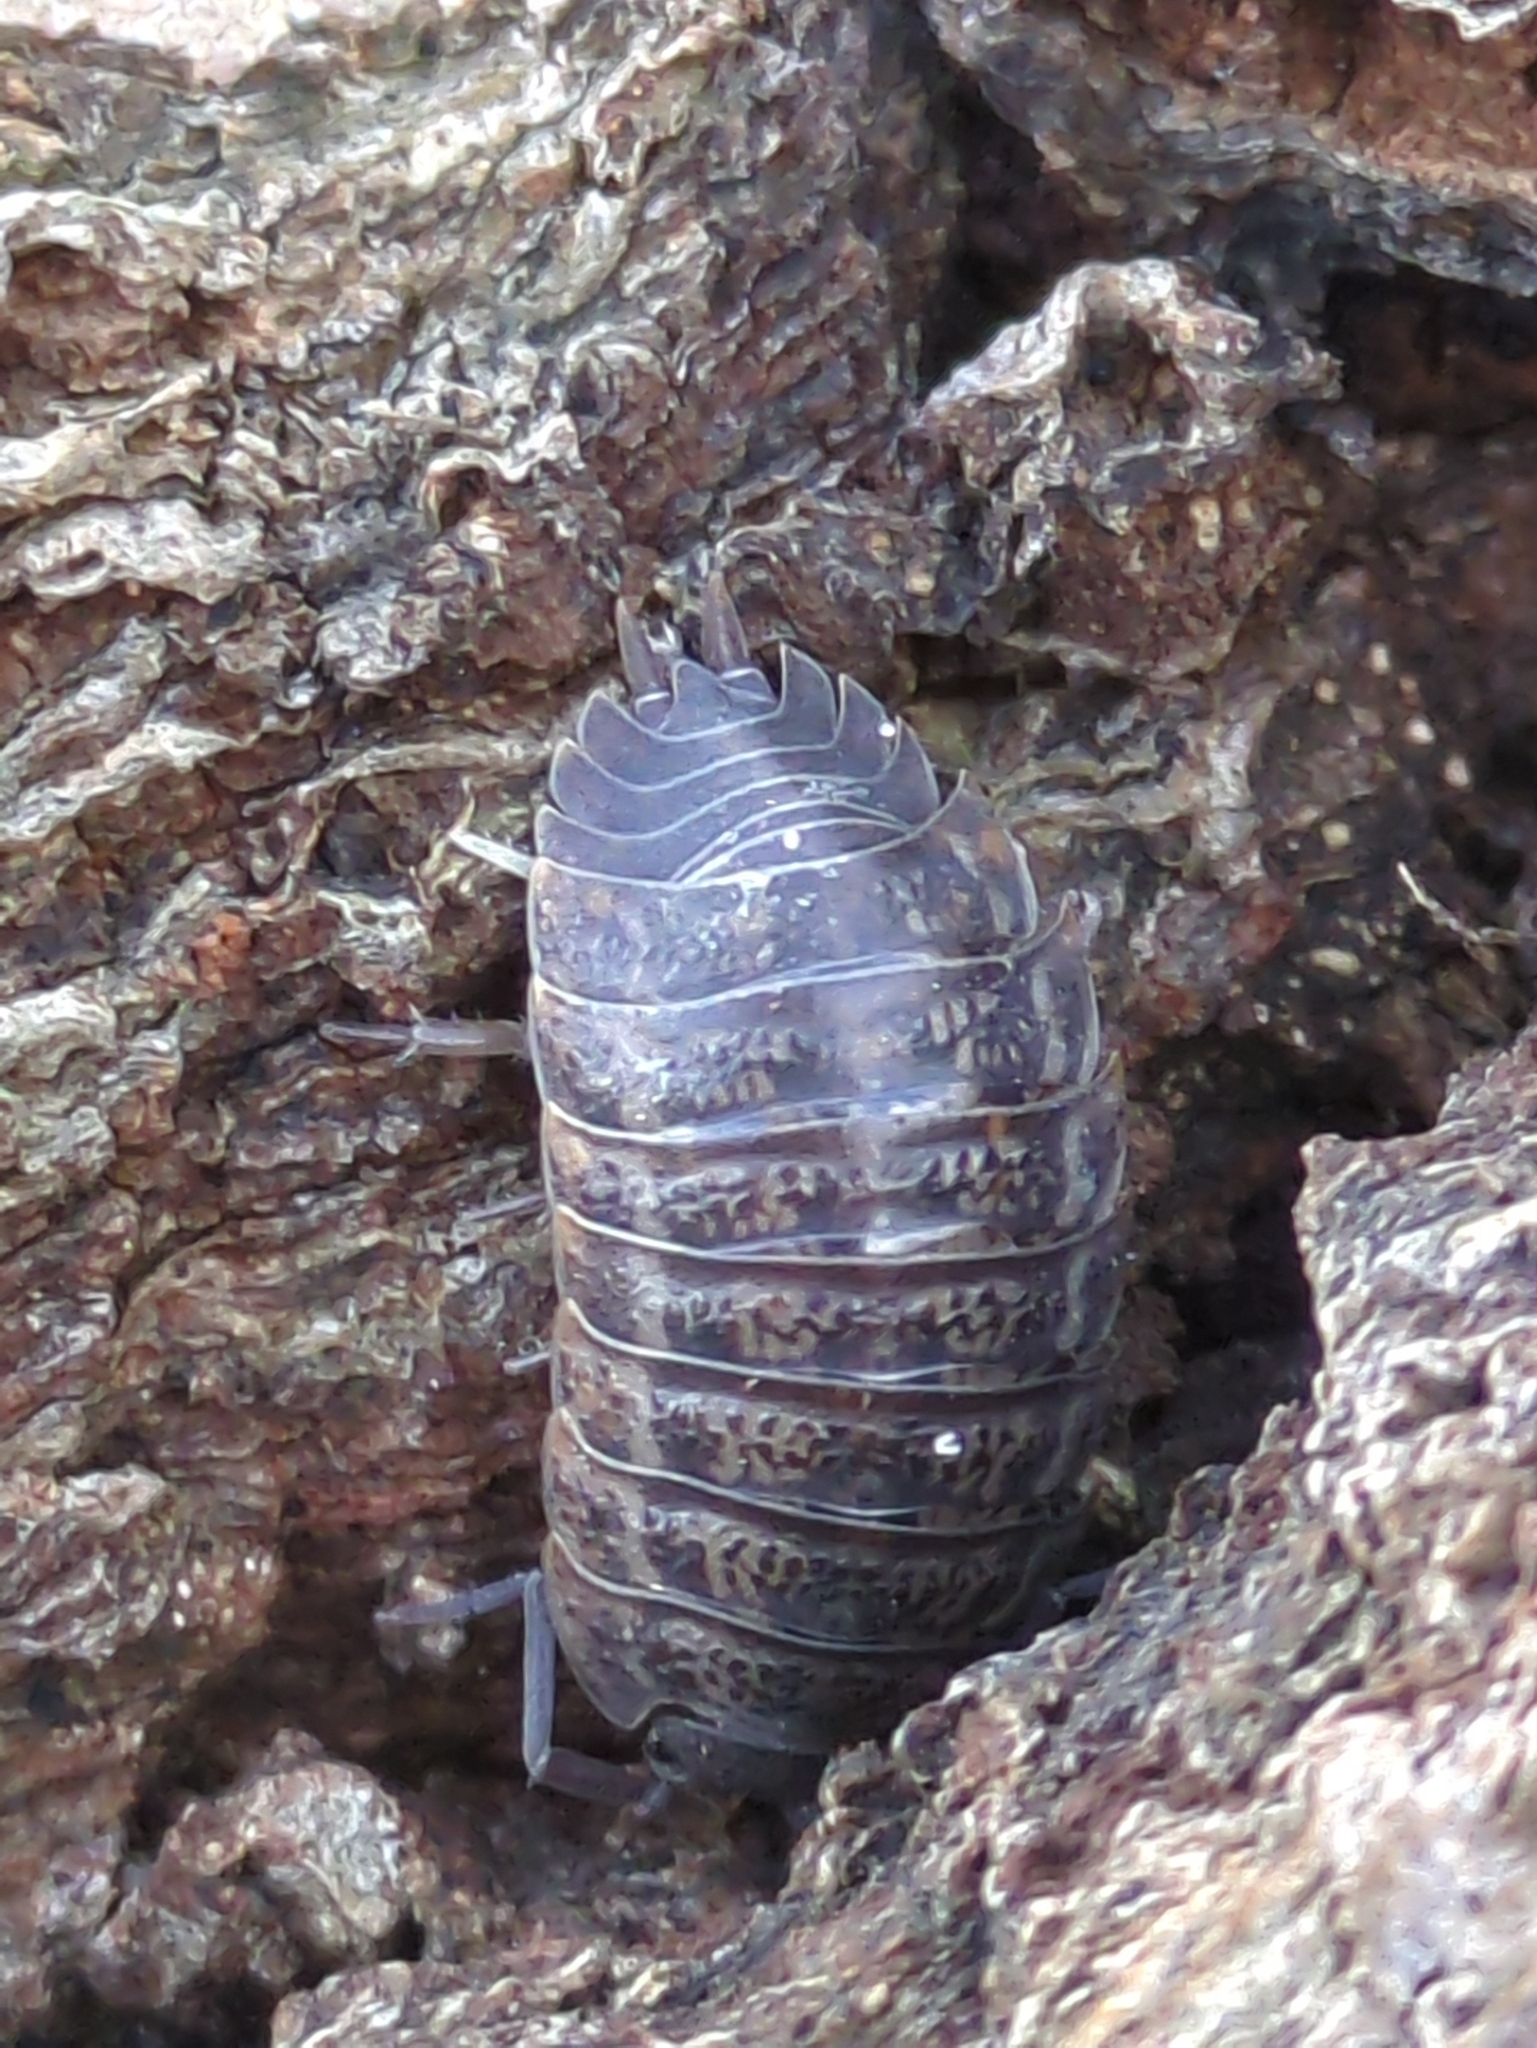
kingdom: Animalia
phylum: Arthropoda
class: Malacostraca
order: Isopoda
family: Trachelipodidae
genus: Trachelipus
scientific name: Trachelipus rathkii
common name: Isopod
